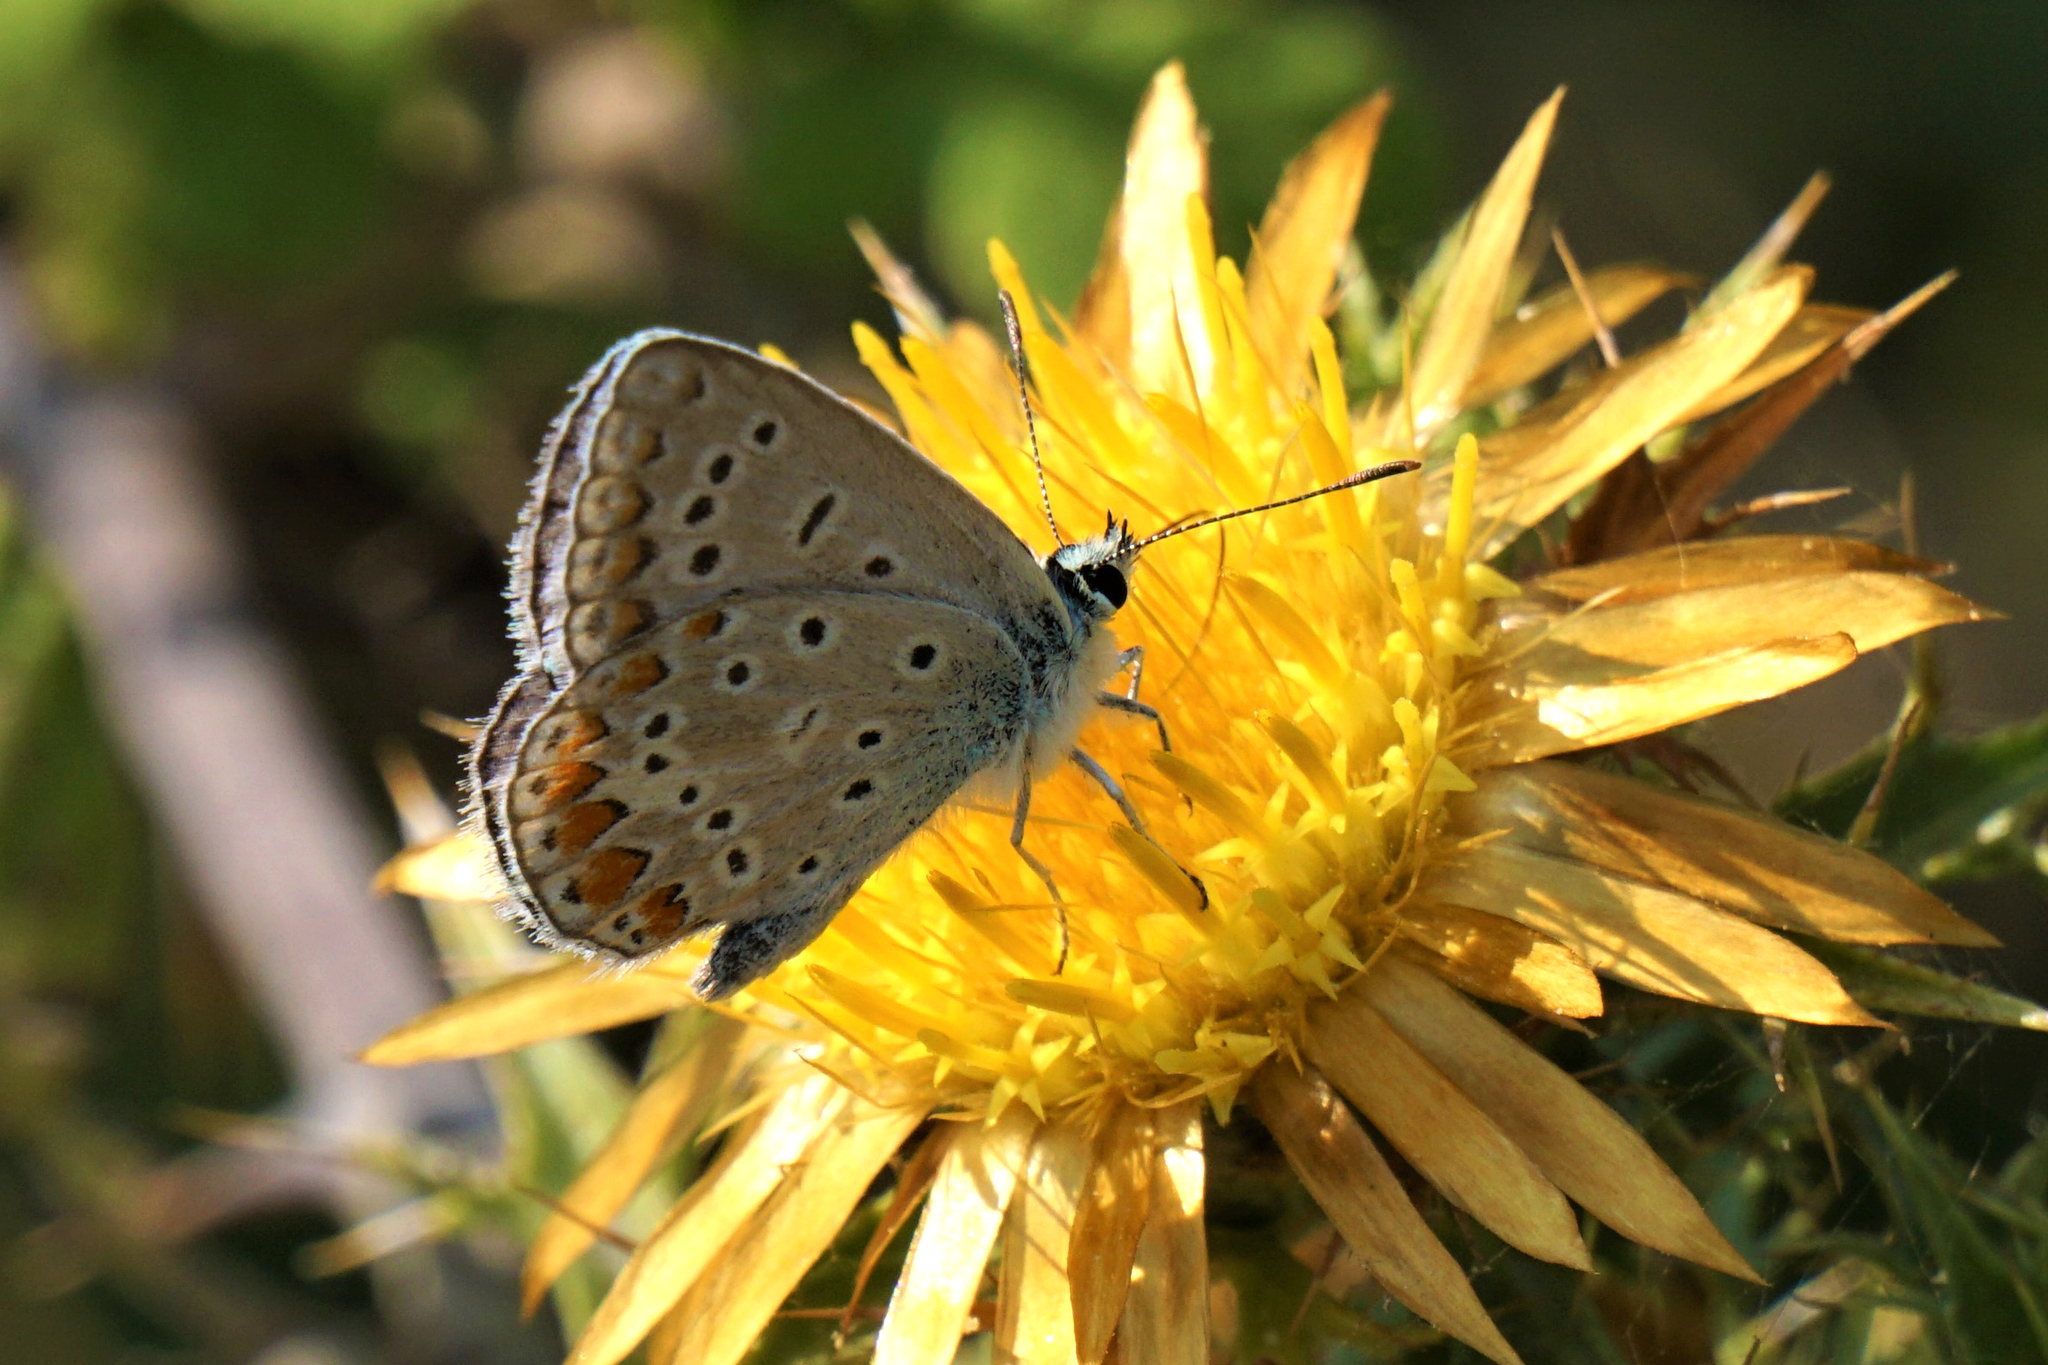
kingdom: Animalia
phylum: Arthropoda
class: Insecta
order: Lepidoptera
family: Lycaenidae
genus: Polyommatus
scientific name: Polyommatus icarus
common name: Common blue
